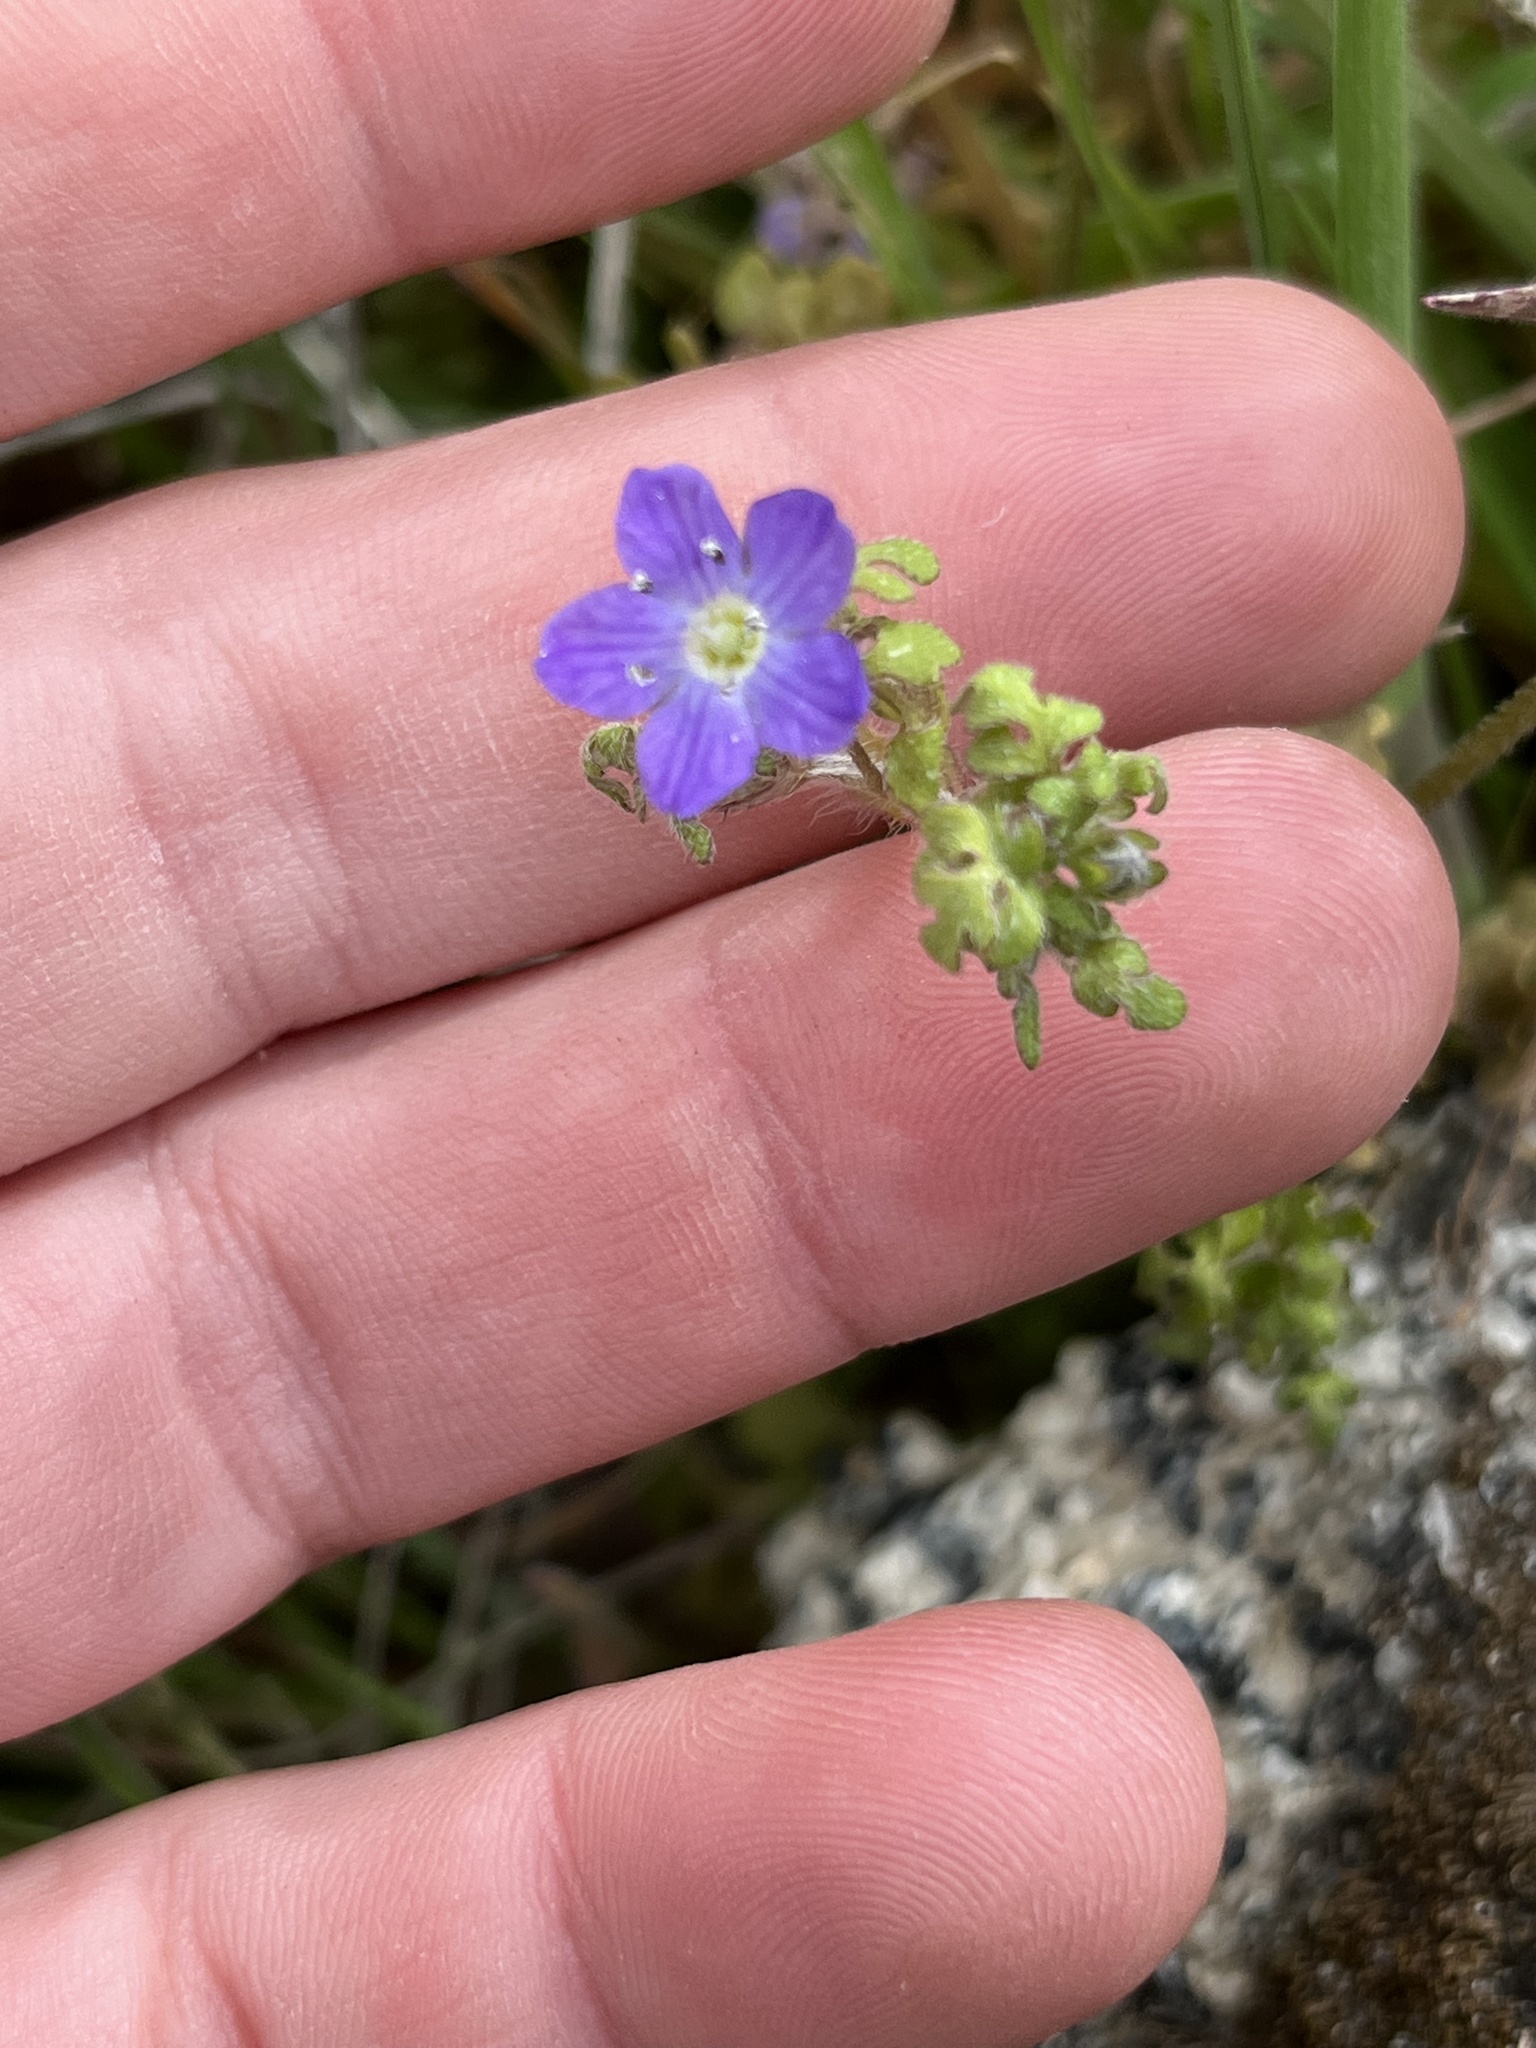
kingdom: Plantae
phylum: Tracheophyta
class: Magnoliopsida
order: Boraginales
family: Hydrophyllaceae
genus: Nemophila
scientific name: Nemophila pulchella
